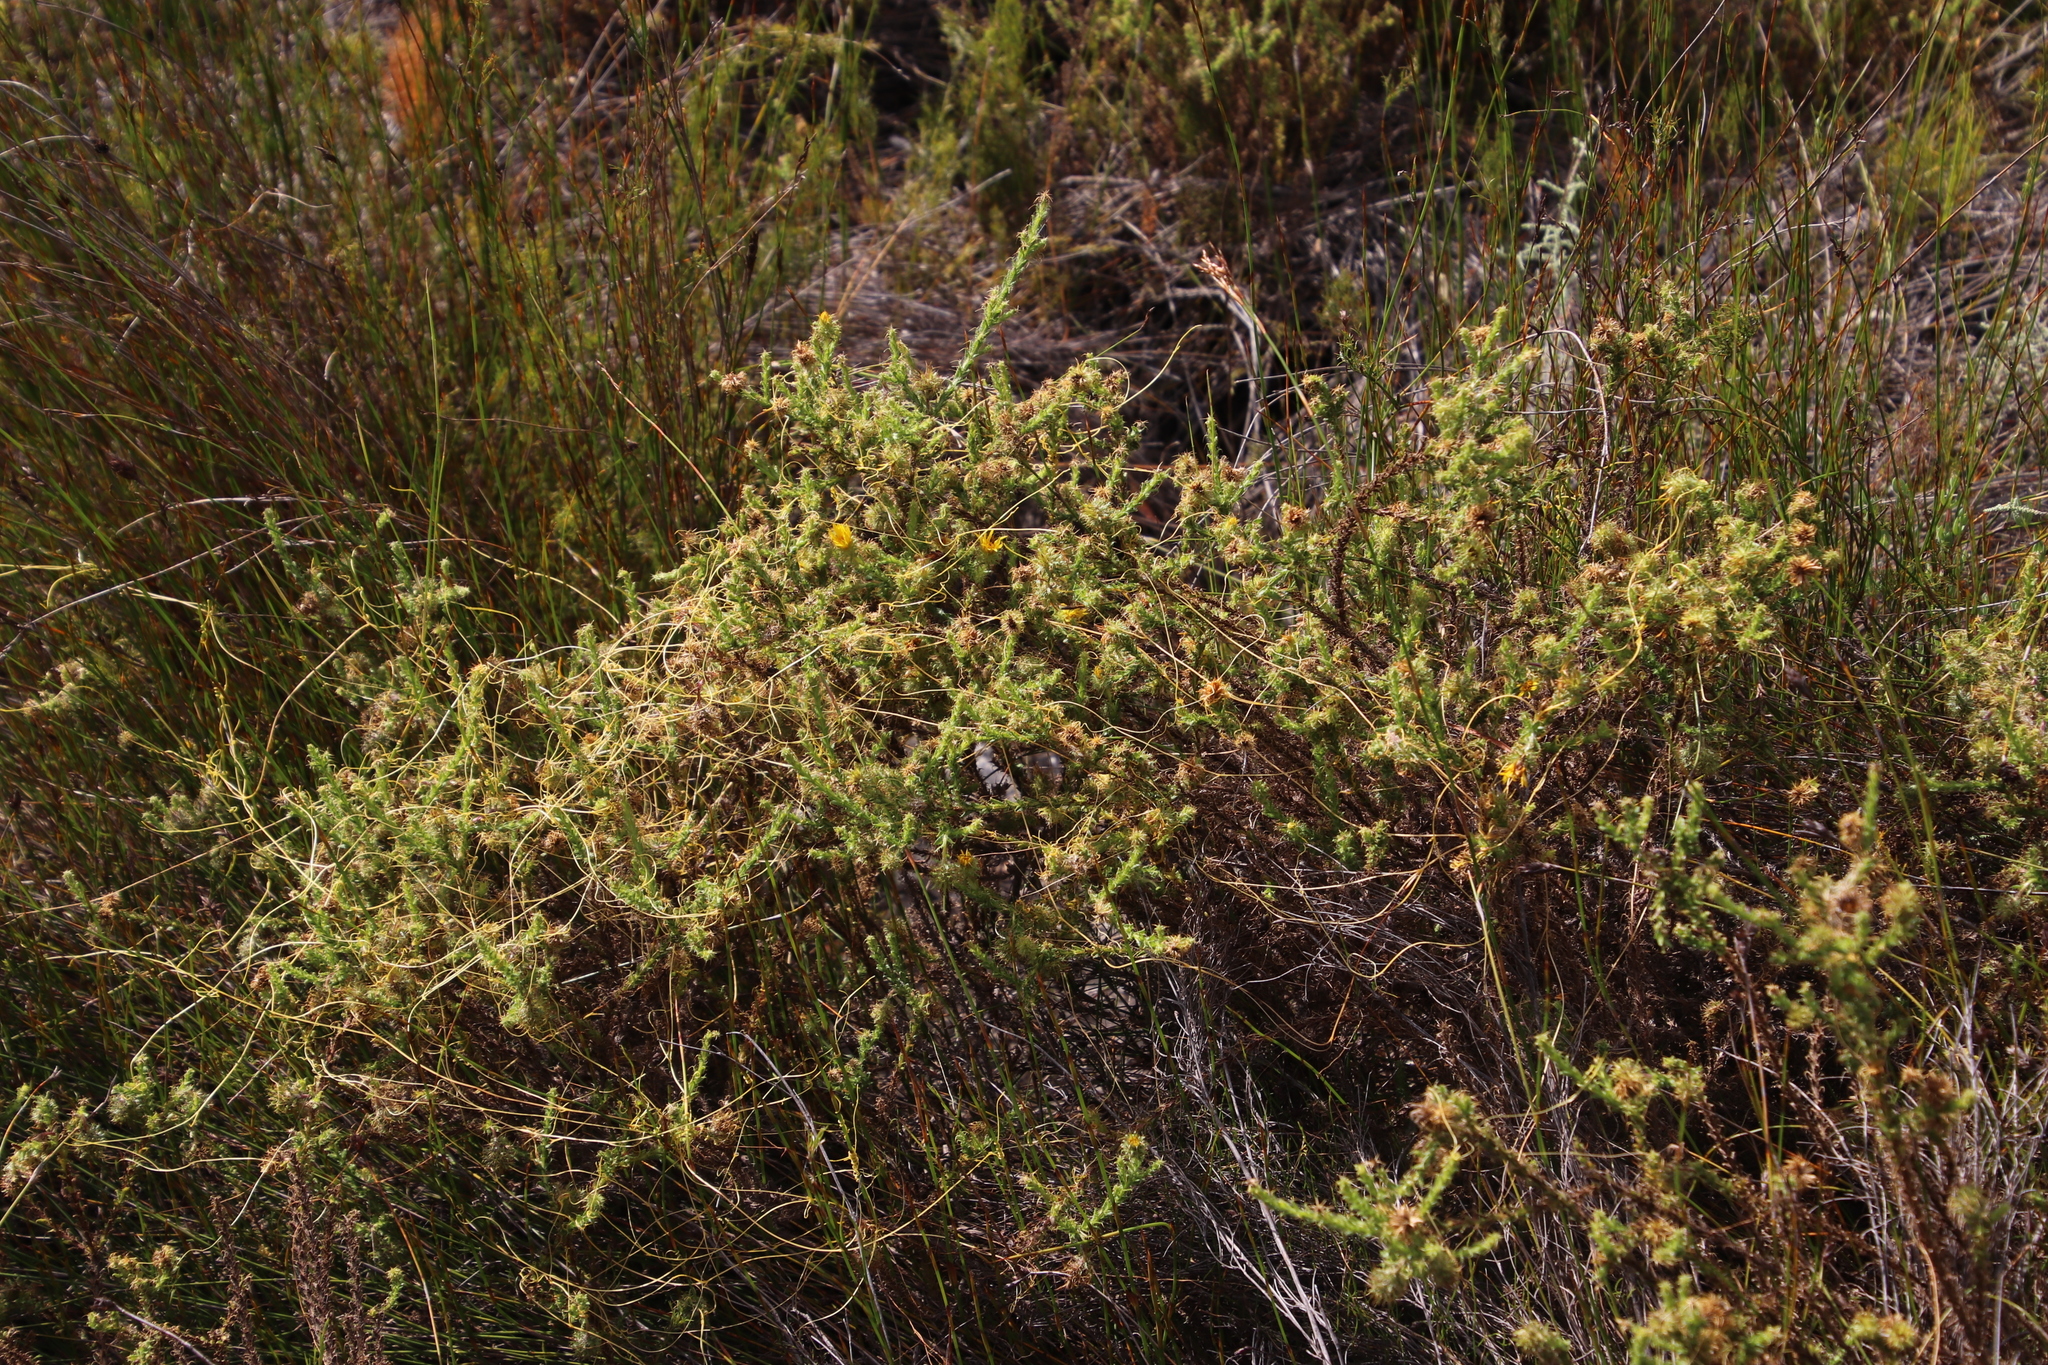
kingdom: Plantae
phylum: Tracheophyta
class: Magnoliopsida
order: Asterales
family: Asteraceae
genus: Cullumia
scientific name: Cullumia reticulata
